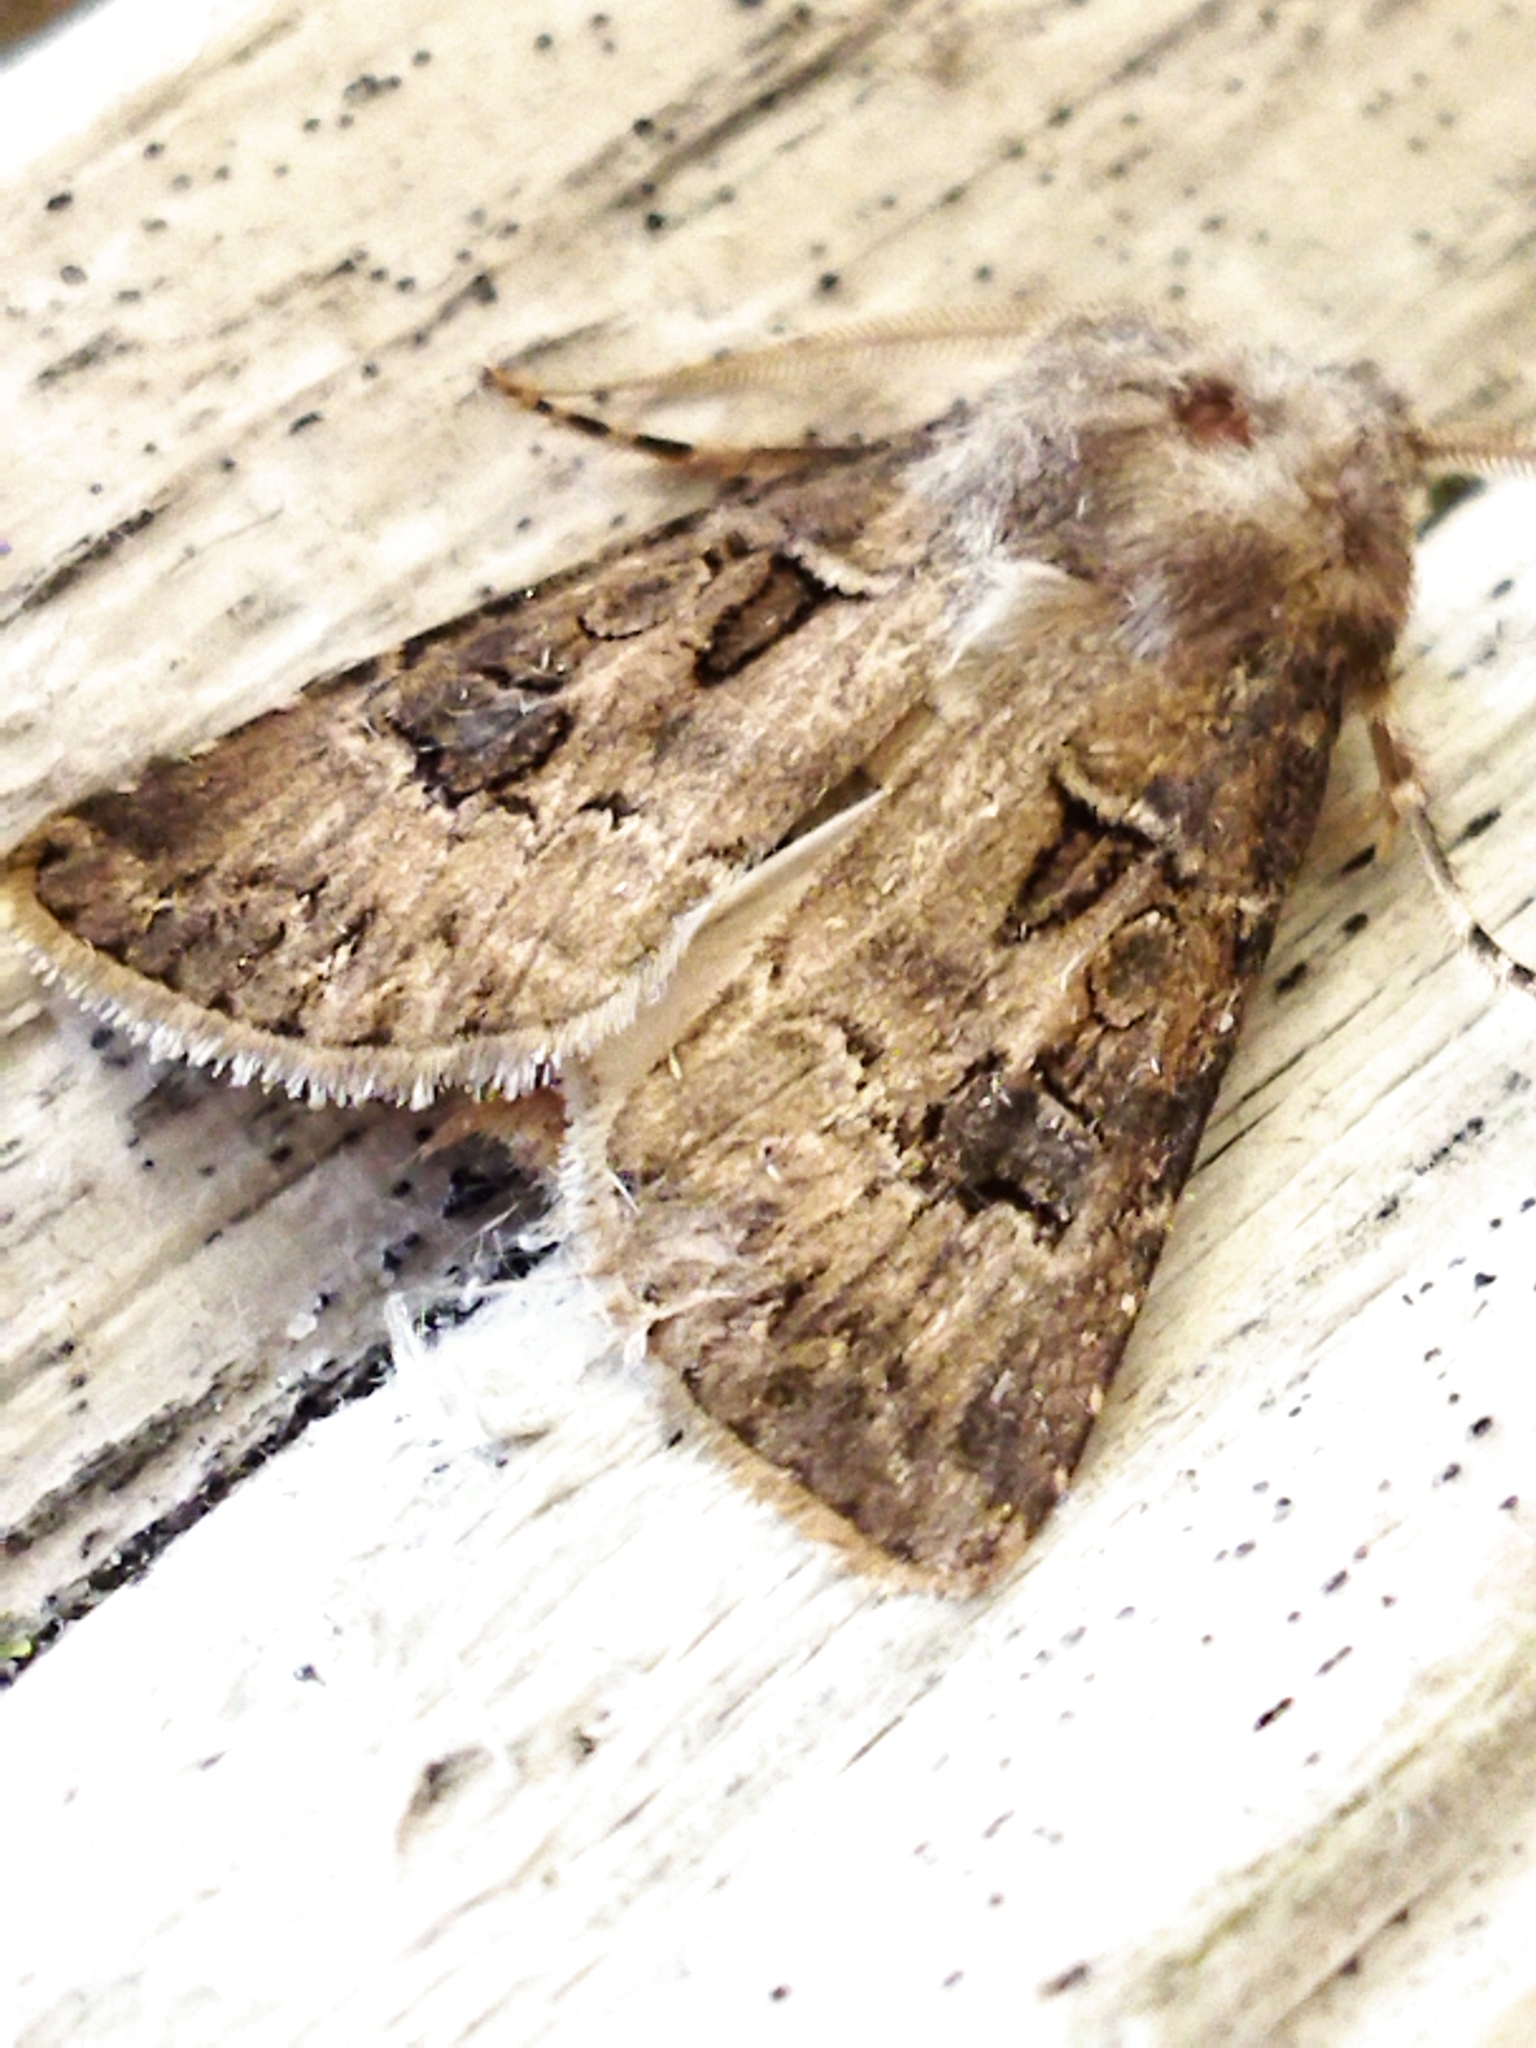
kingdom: Animalia
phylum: Arthropoda
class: Insecta
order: Lepidoptera
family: Noctuidae
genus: Agrotis
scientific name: Agrotis bigramma
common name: Great dart
